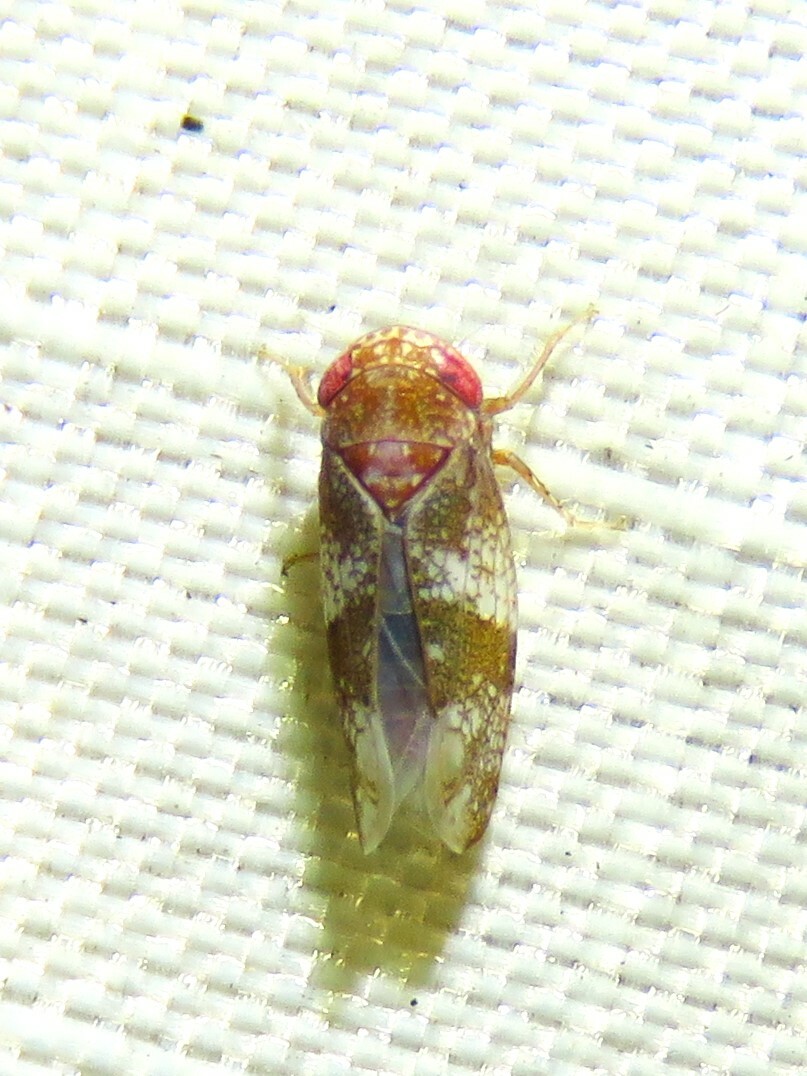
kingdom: Animalia
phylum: Arthropoda
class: Insecta
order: Hemiptera
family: Cicadellidae
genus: Norvellina
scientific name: Norvellina helenae
